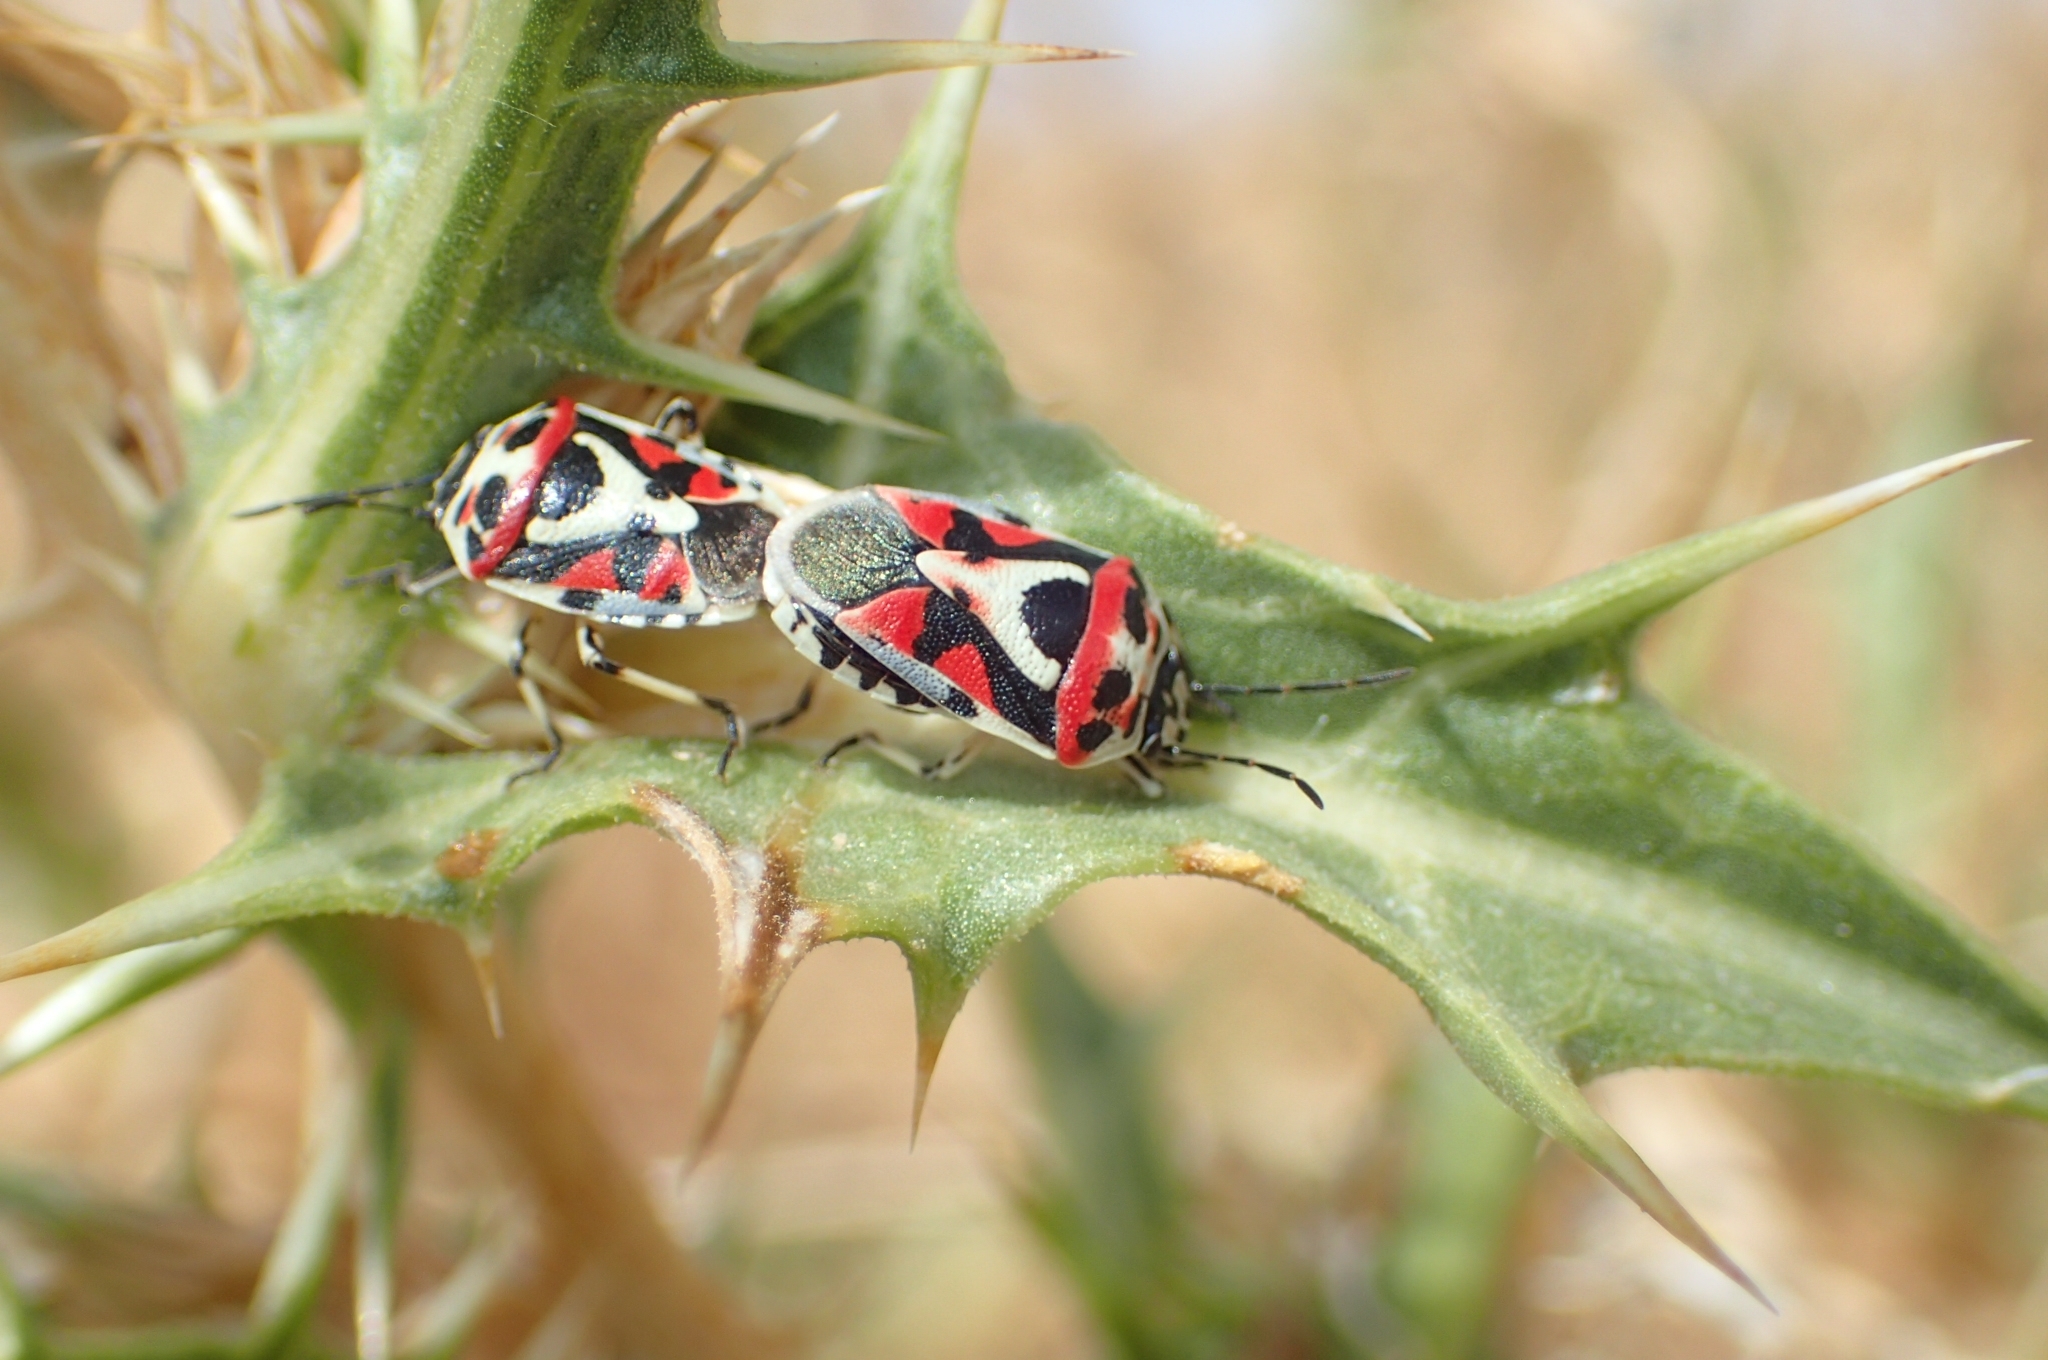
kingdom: Animalia
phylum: Arthropoda
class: Insecta
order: Hemiptera
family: Pentatomidae
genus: Eurydema
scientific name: Eurydema ornata
